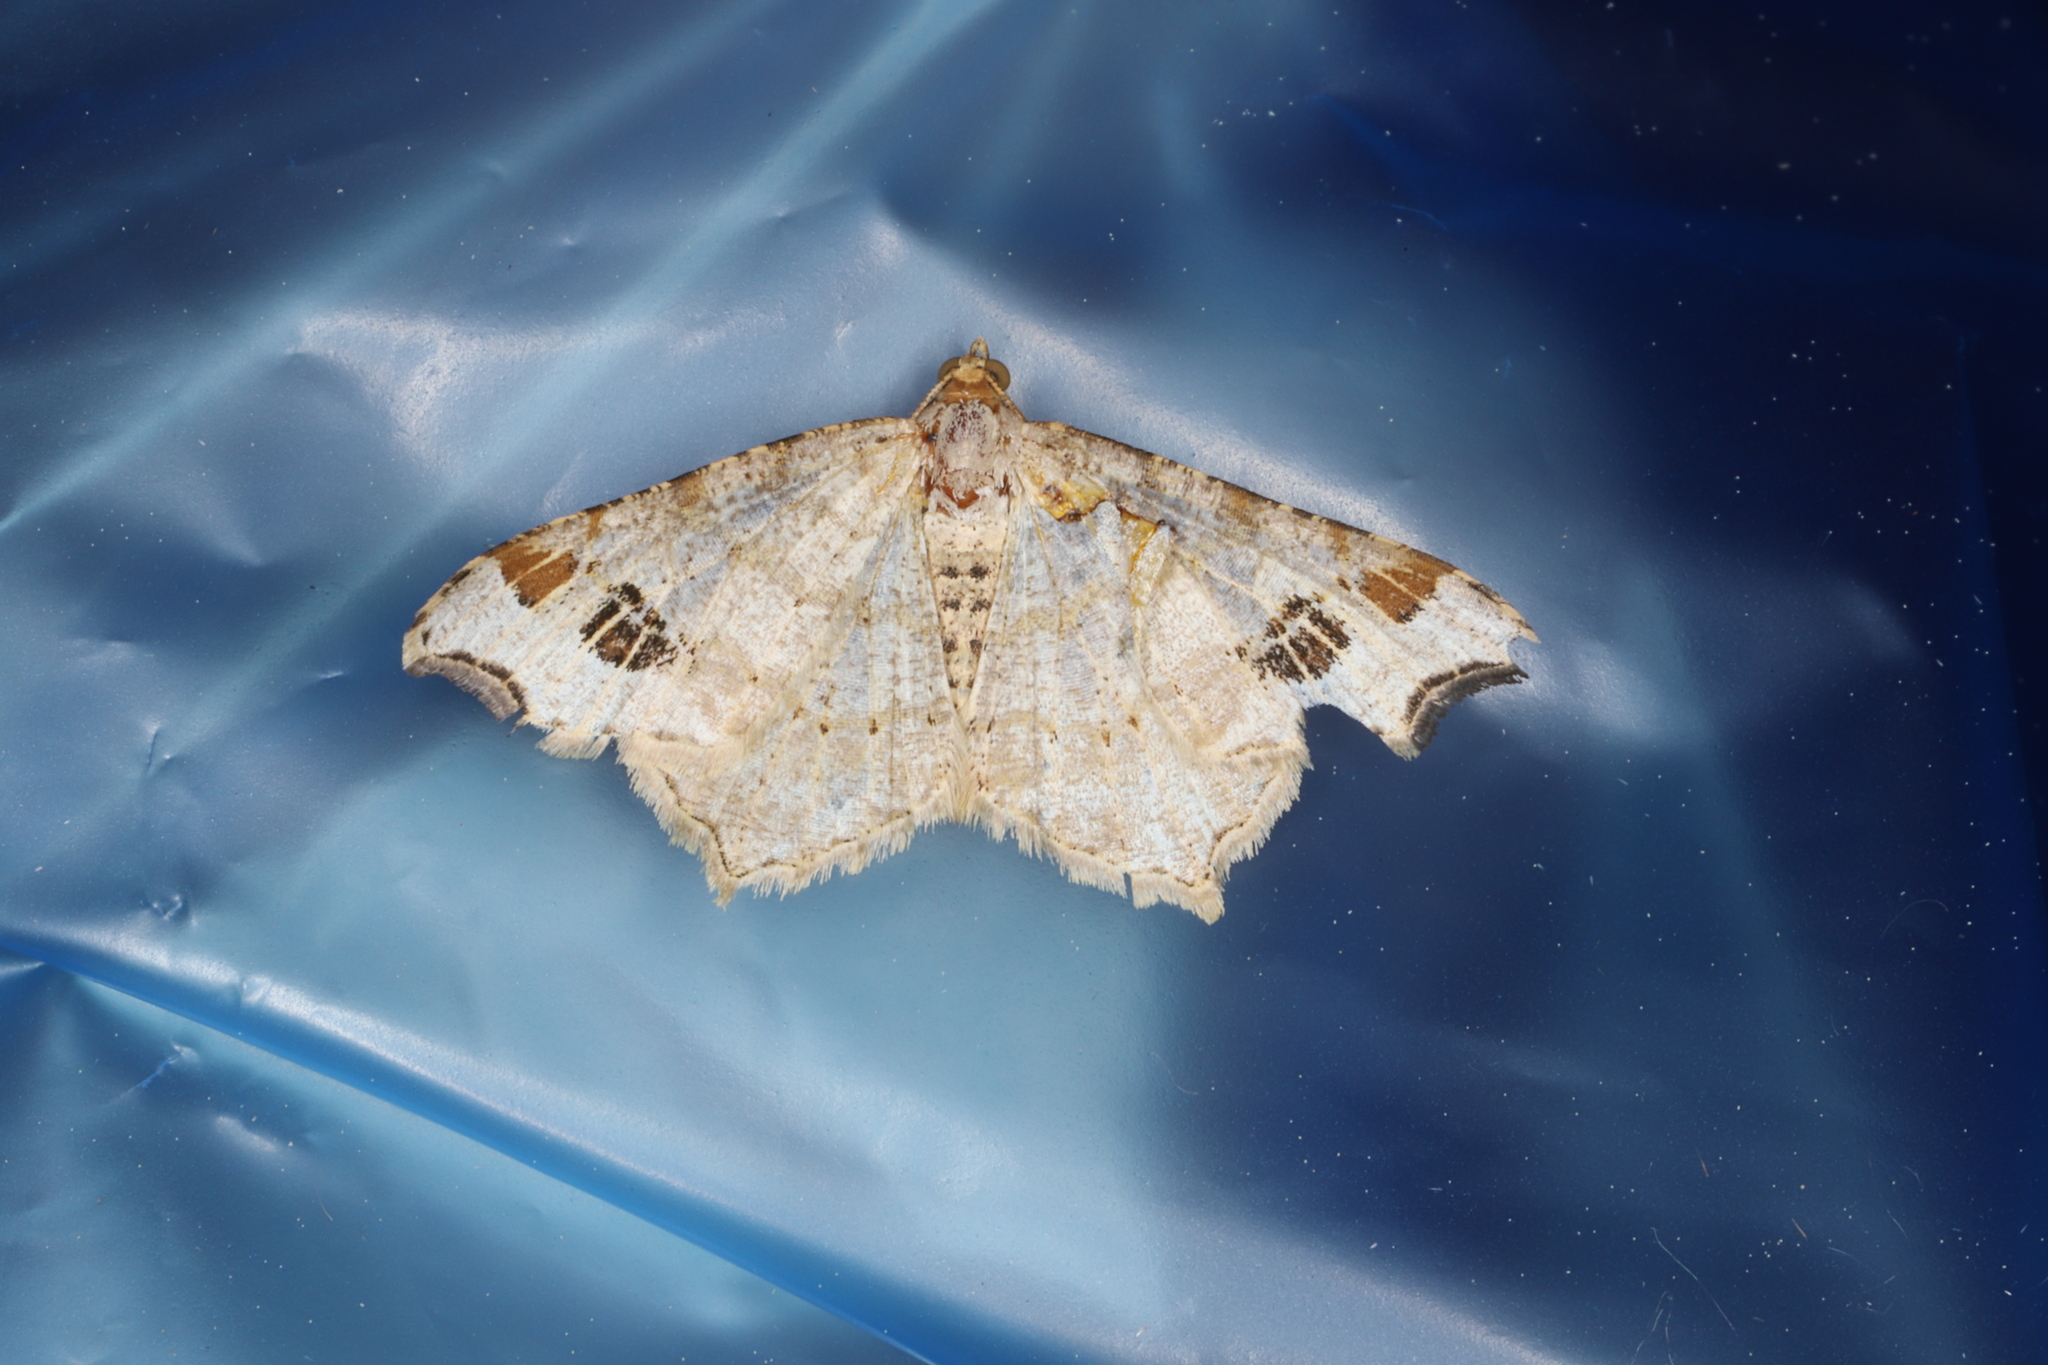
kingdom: Animalia
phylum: Arthropoda
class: Insecta
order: Lepidoptera
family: Geometridae
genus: Macaria
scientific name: Macaria ulsterata
